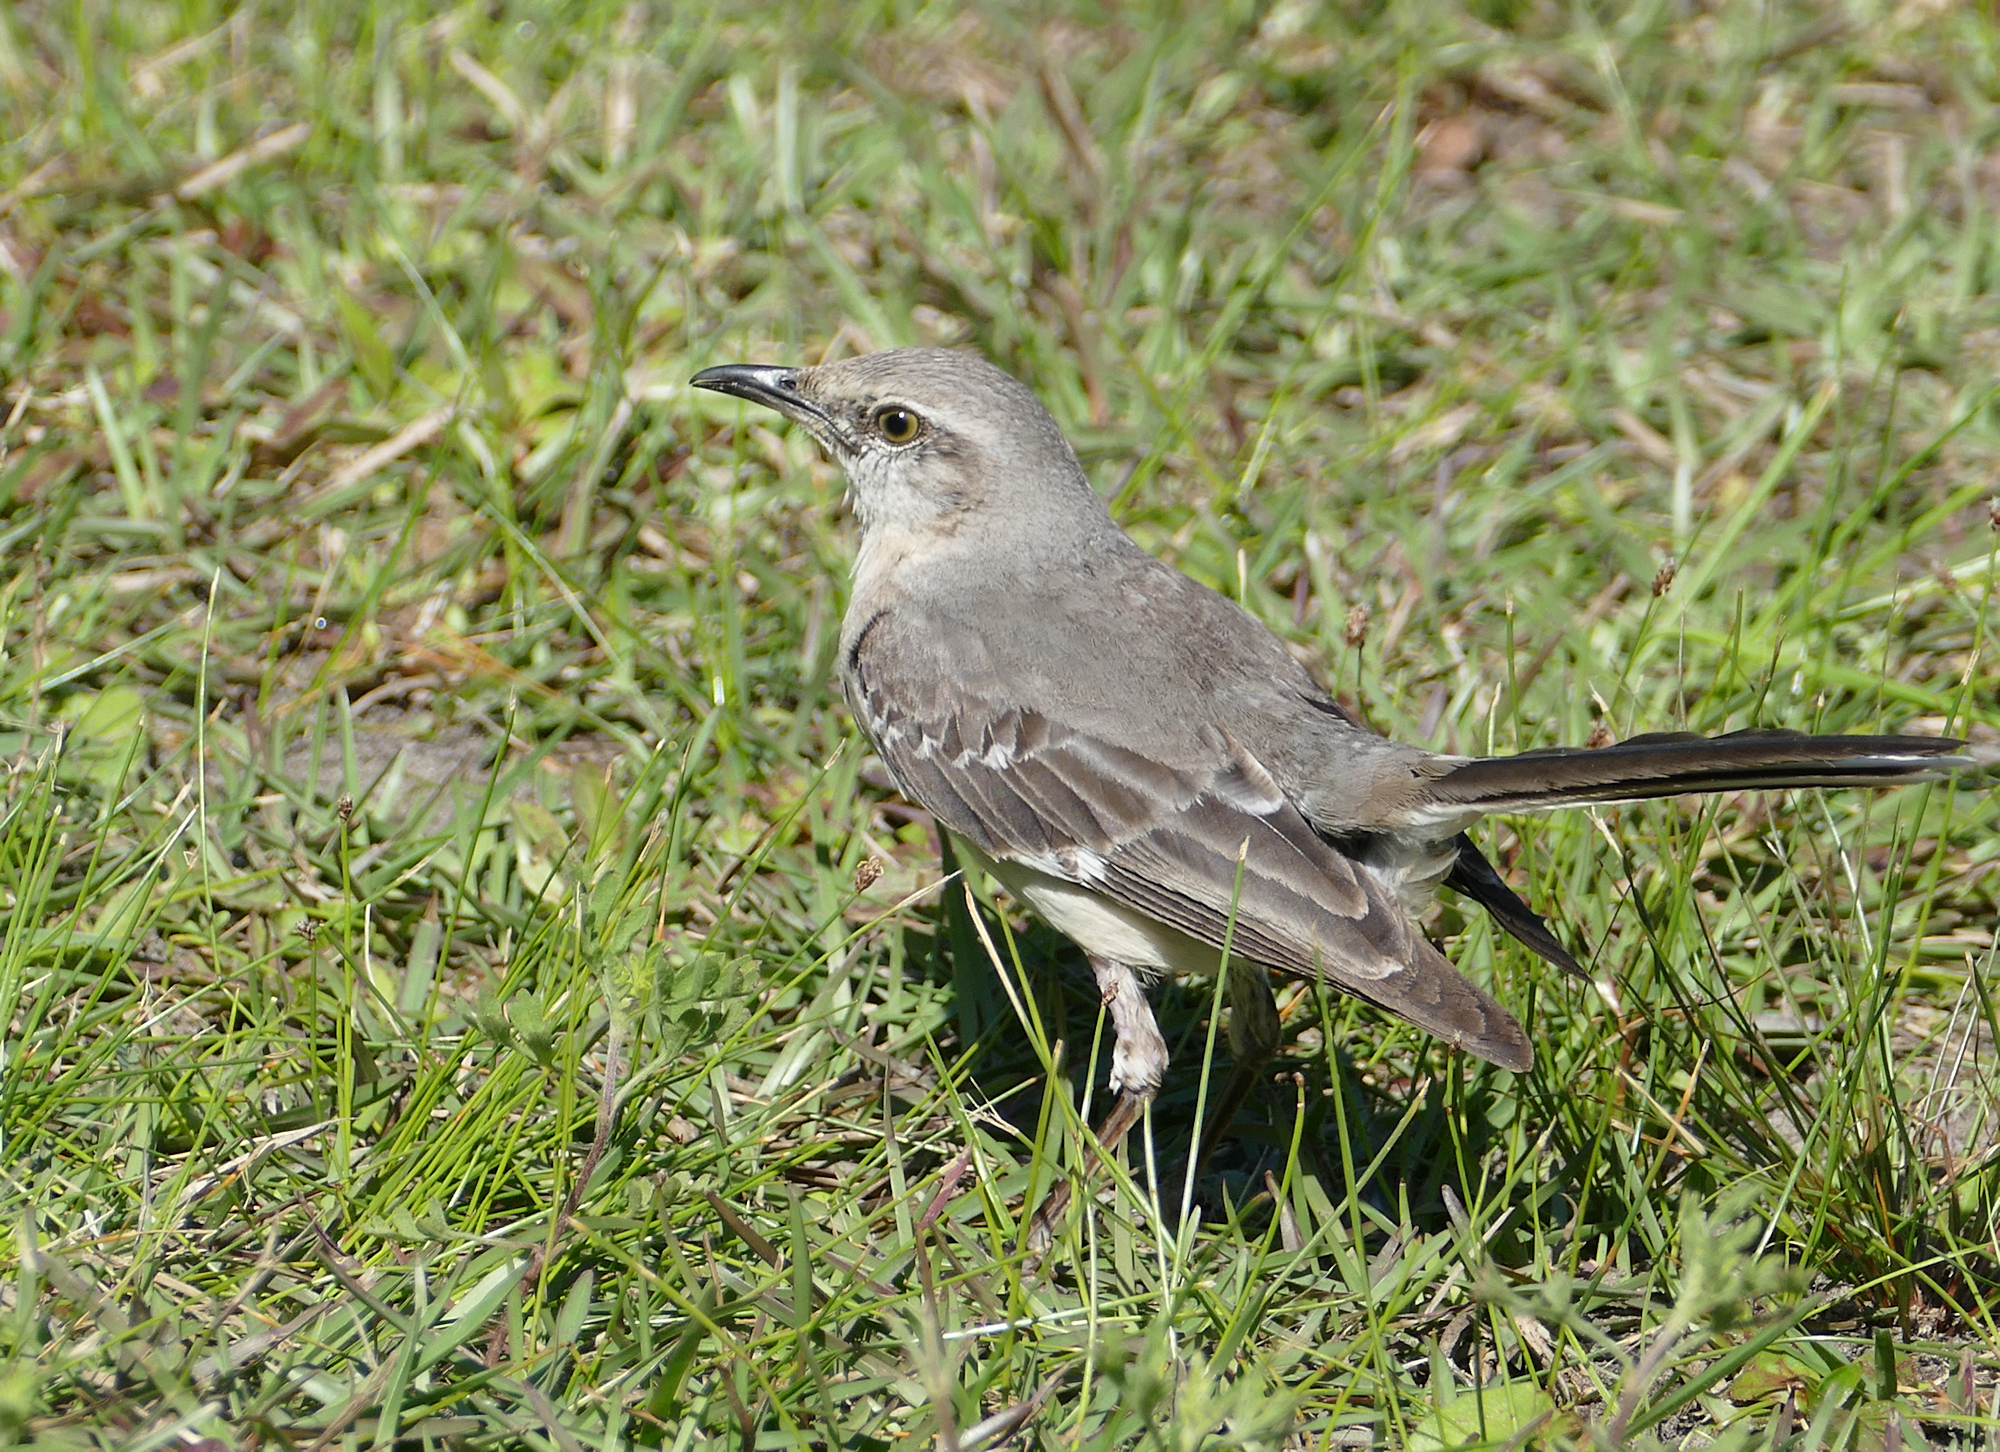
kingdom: Animalia
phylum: Chordata
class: Aves
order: Passeriformes
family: Mimidae
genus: Mimus
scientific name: Mimus polyglottos
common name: Northern mockingbird
